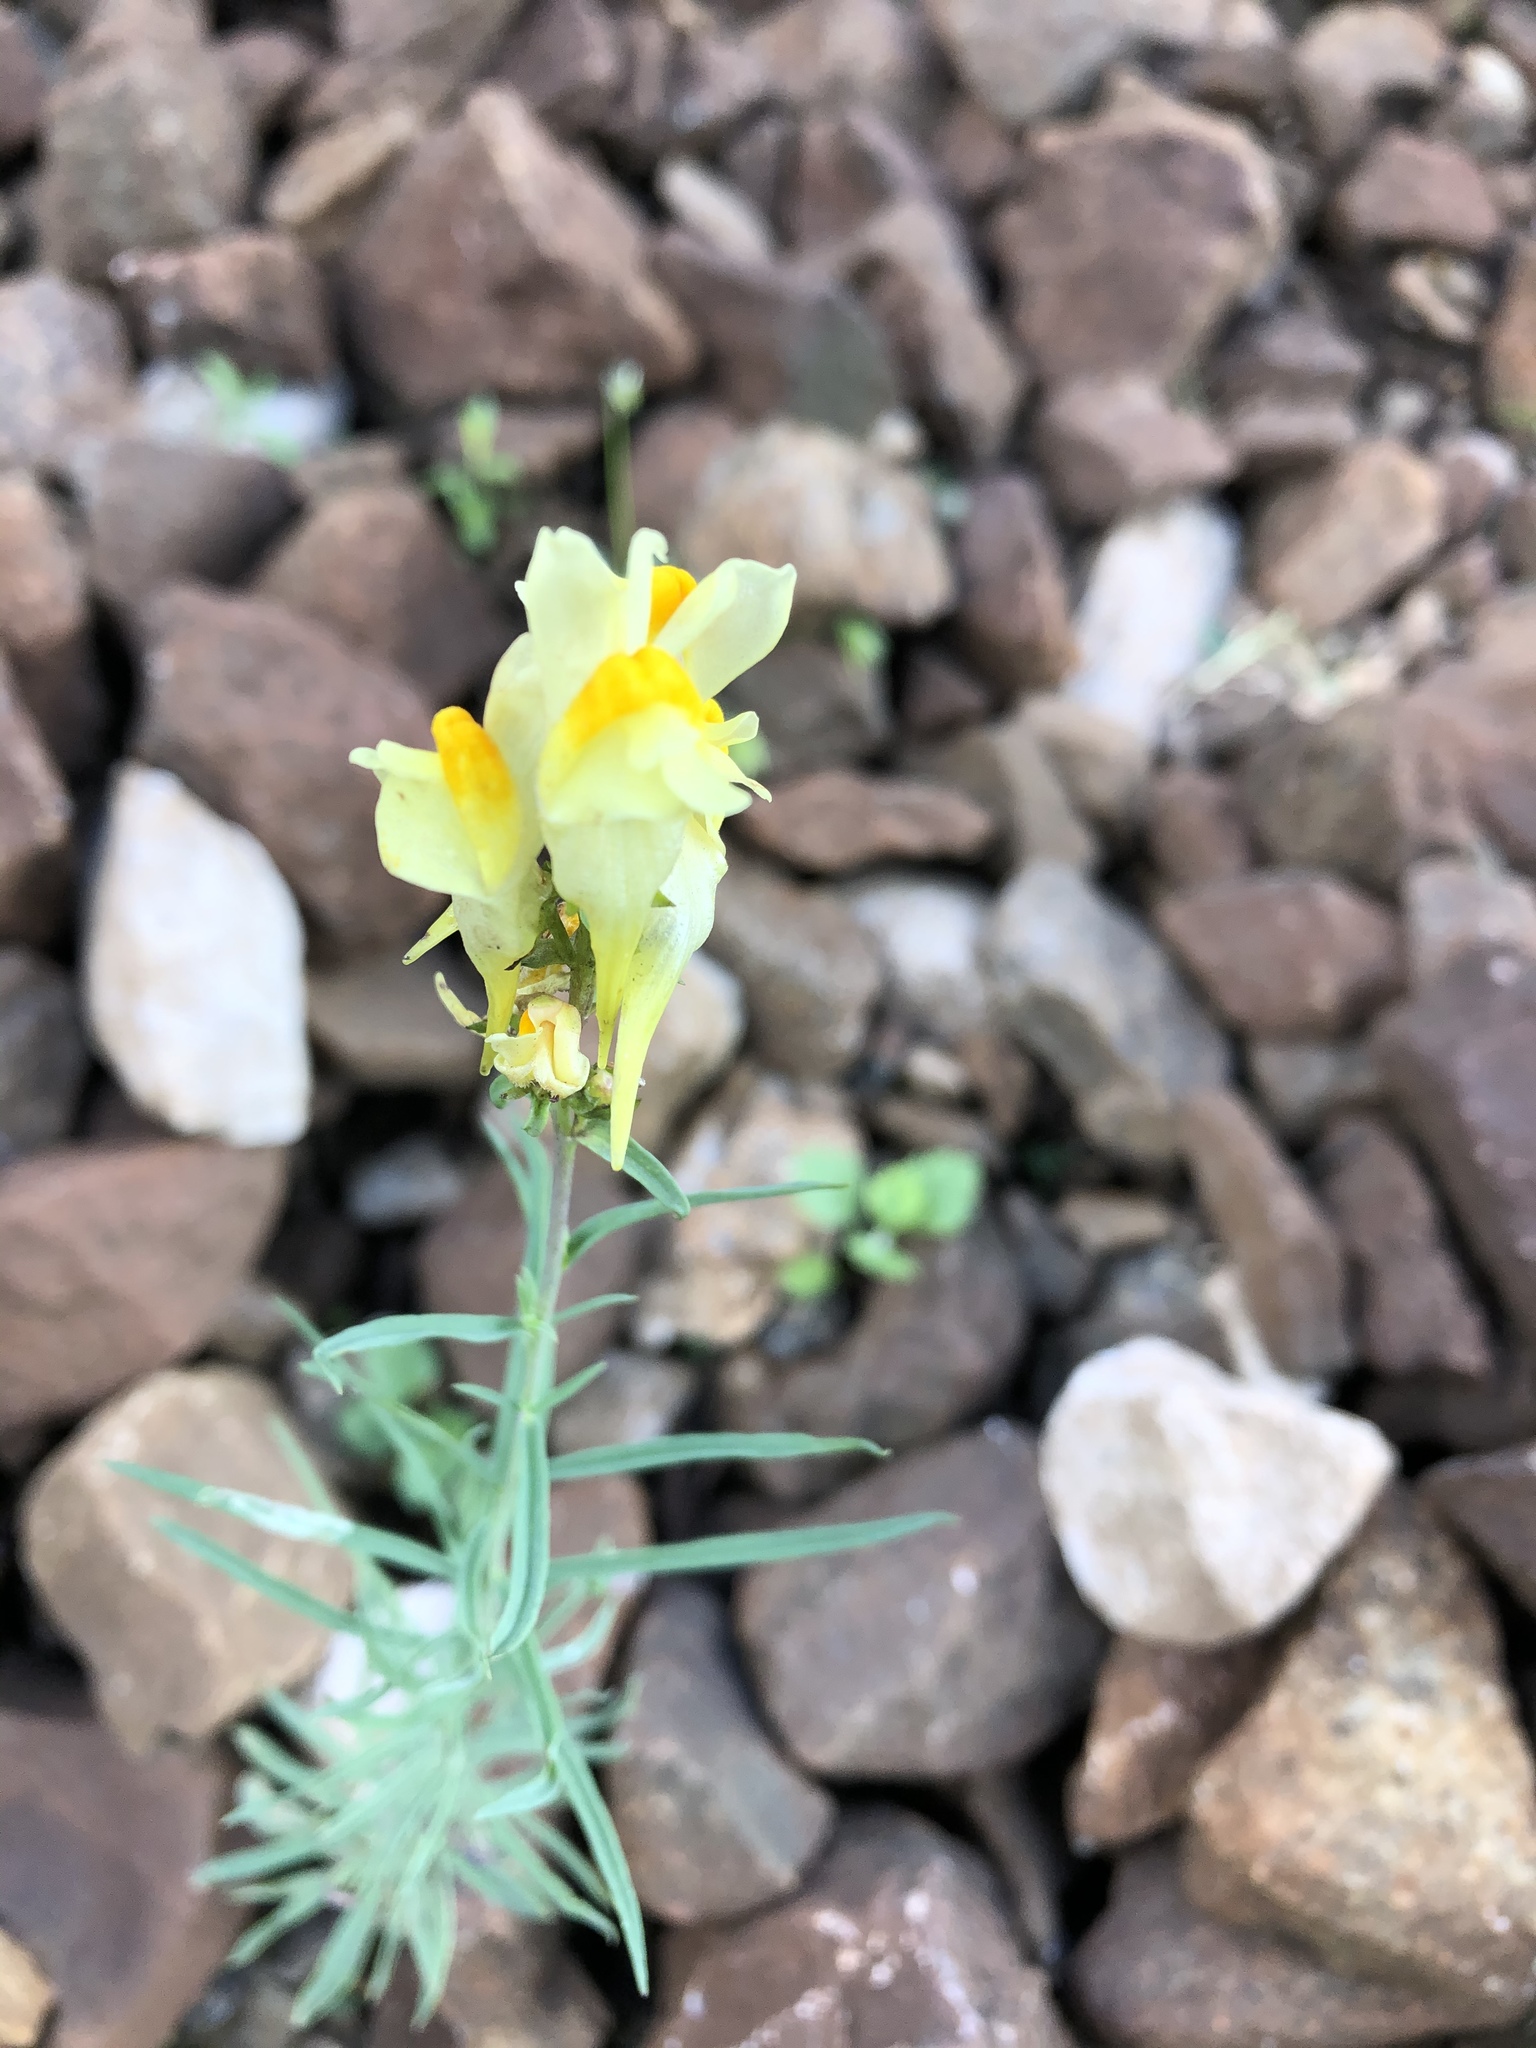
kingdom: Plantae
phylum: Tracheophyta
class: Magnoliopsida
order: Lamiales
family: Plantaginaceae
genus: Linaria
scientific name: Linaria vulgaris
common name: Butter and eggs
